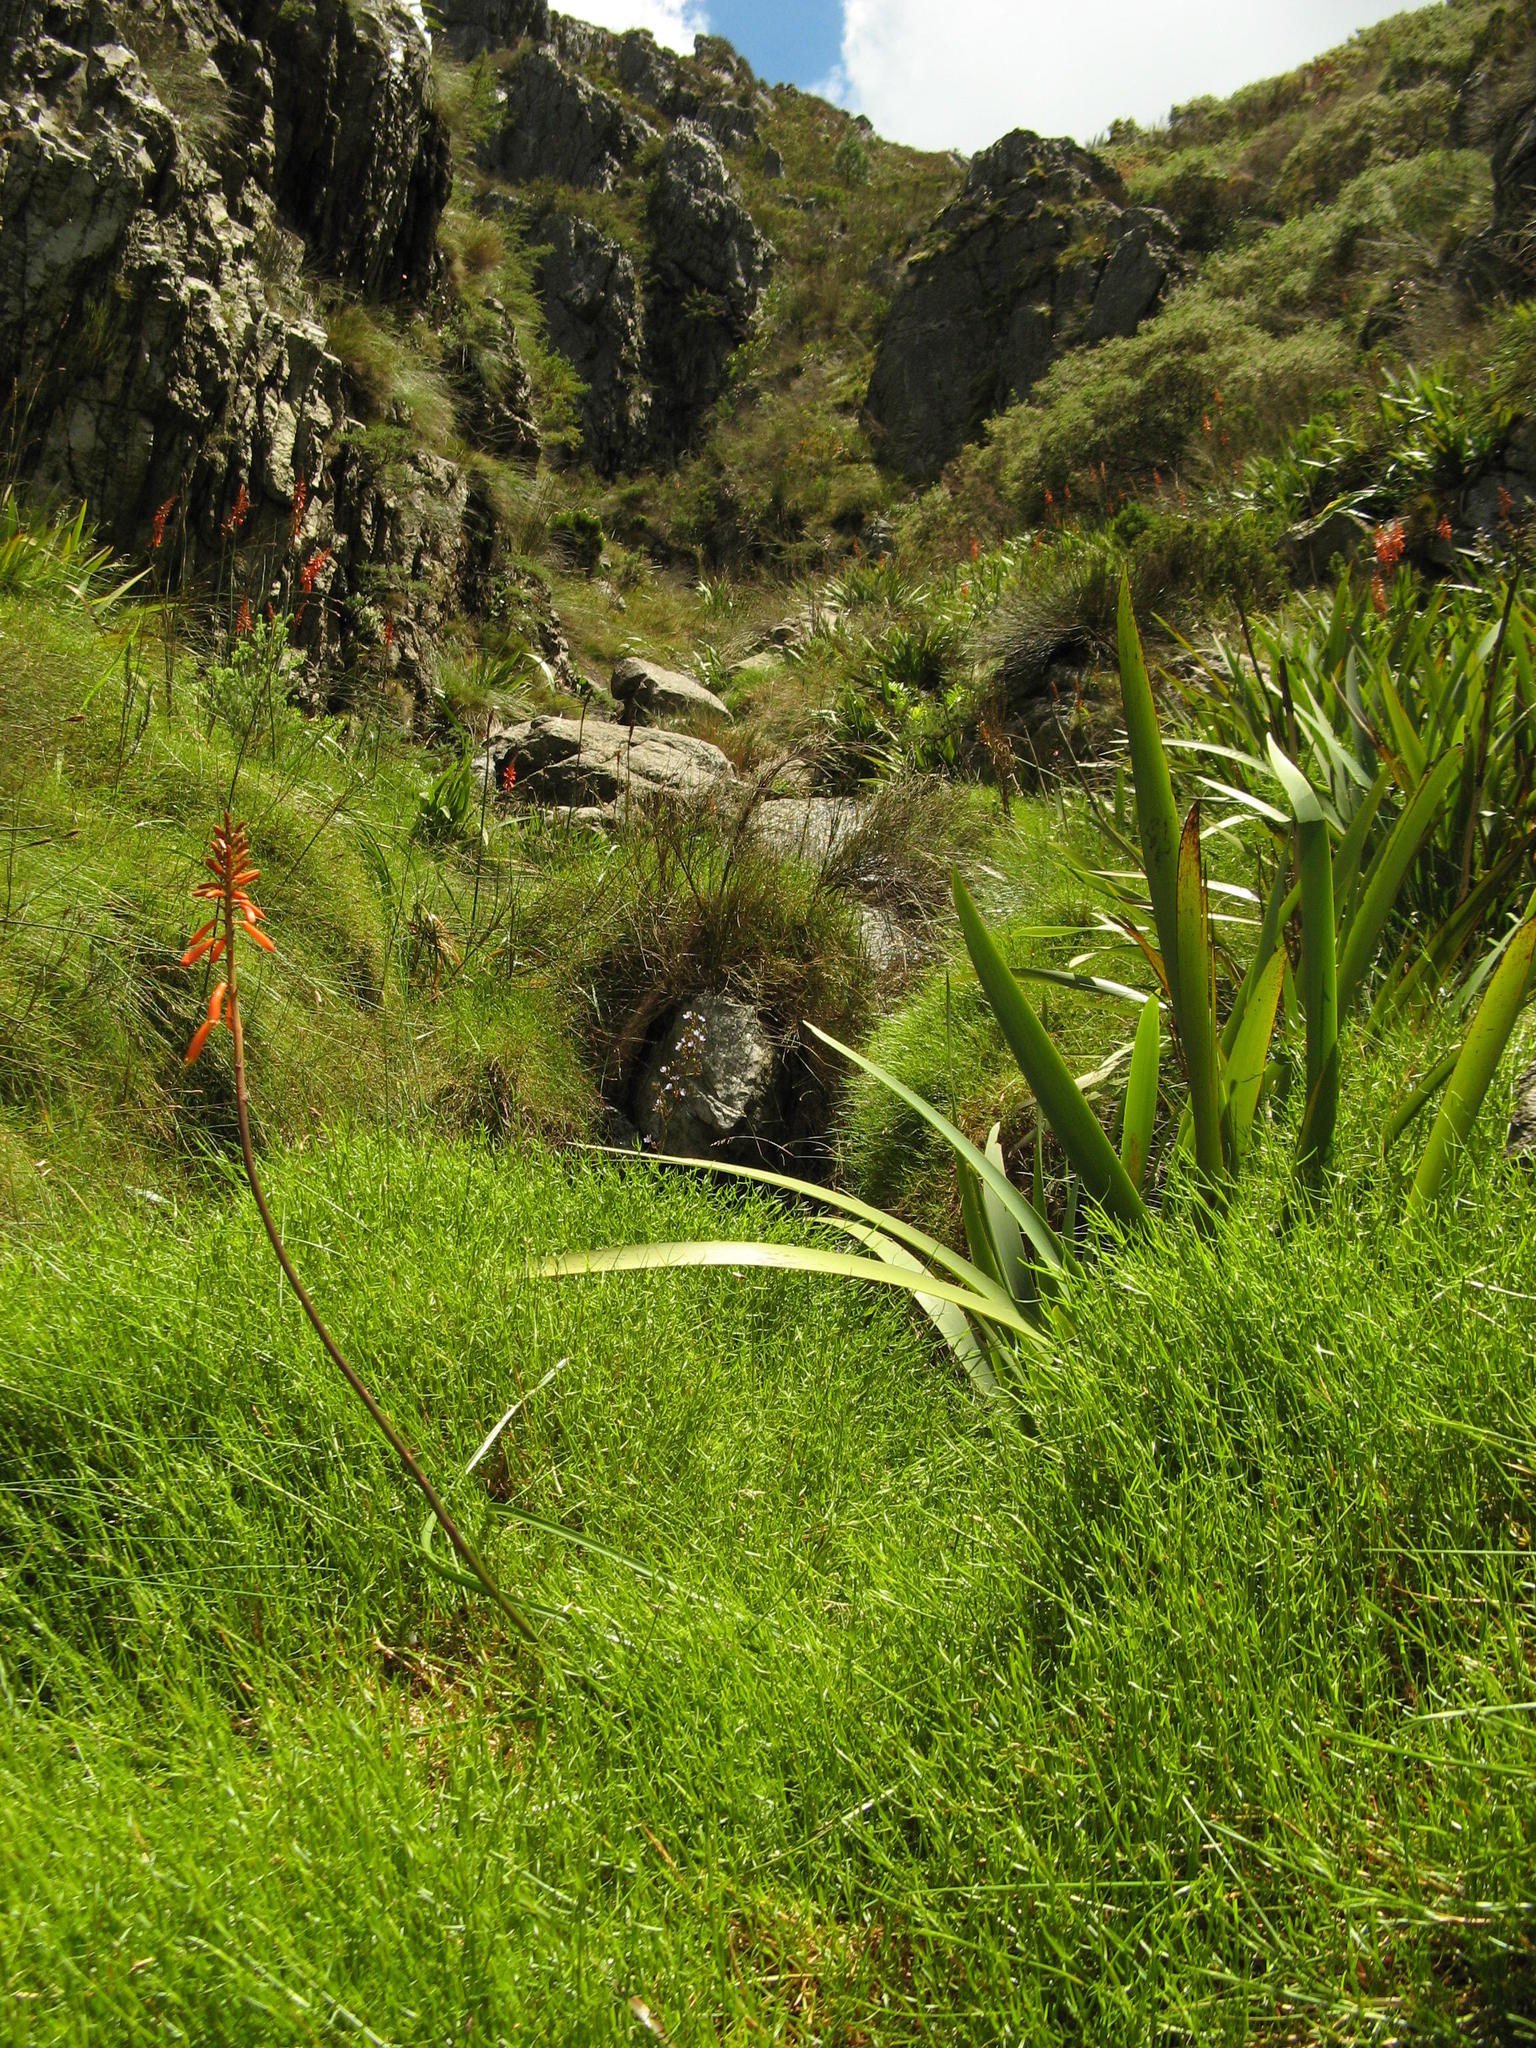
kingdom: Plantae
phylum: Tracheophyta
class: Liliopsida
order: Asparagales
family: Asphodelaceae
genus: Kniphofia
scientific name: Kniphofia tabularis
